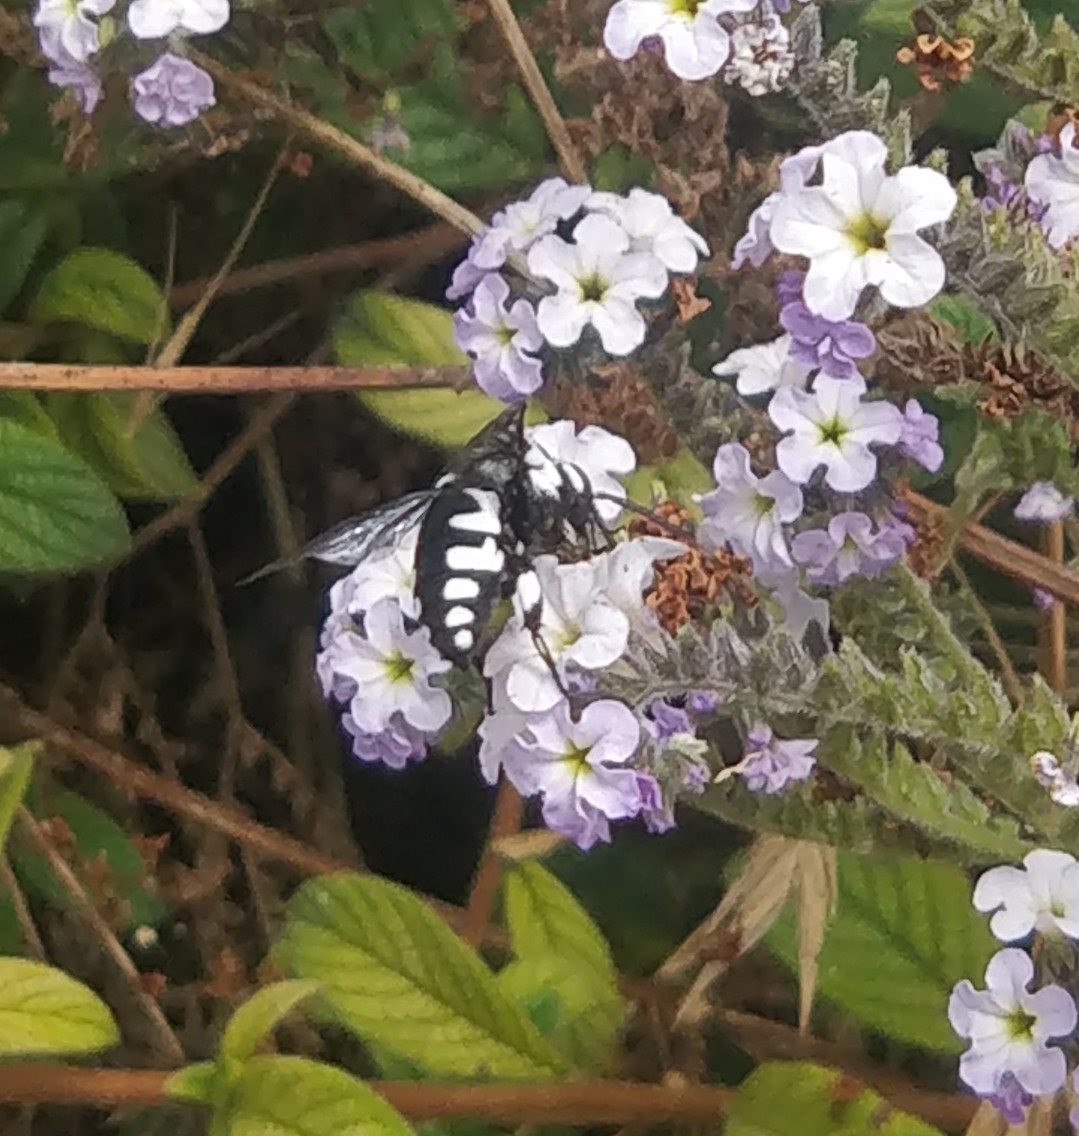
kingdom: Animalia
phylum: Arthropoda
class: Insecta
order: Hymenoptera
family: Apidae
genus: Thyreus
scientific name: Thyreus histrionicus
